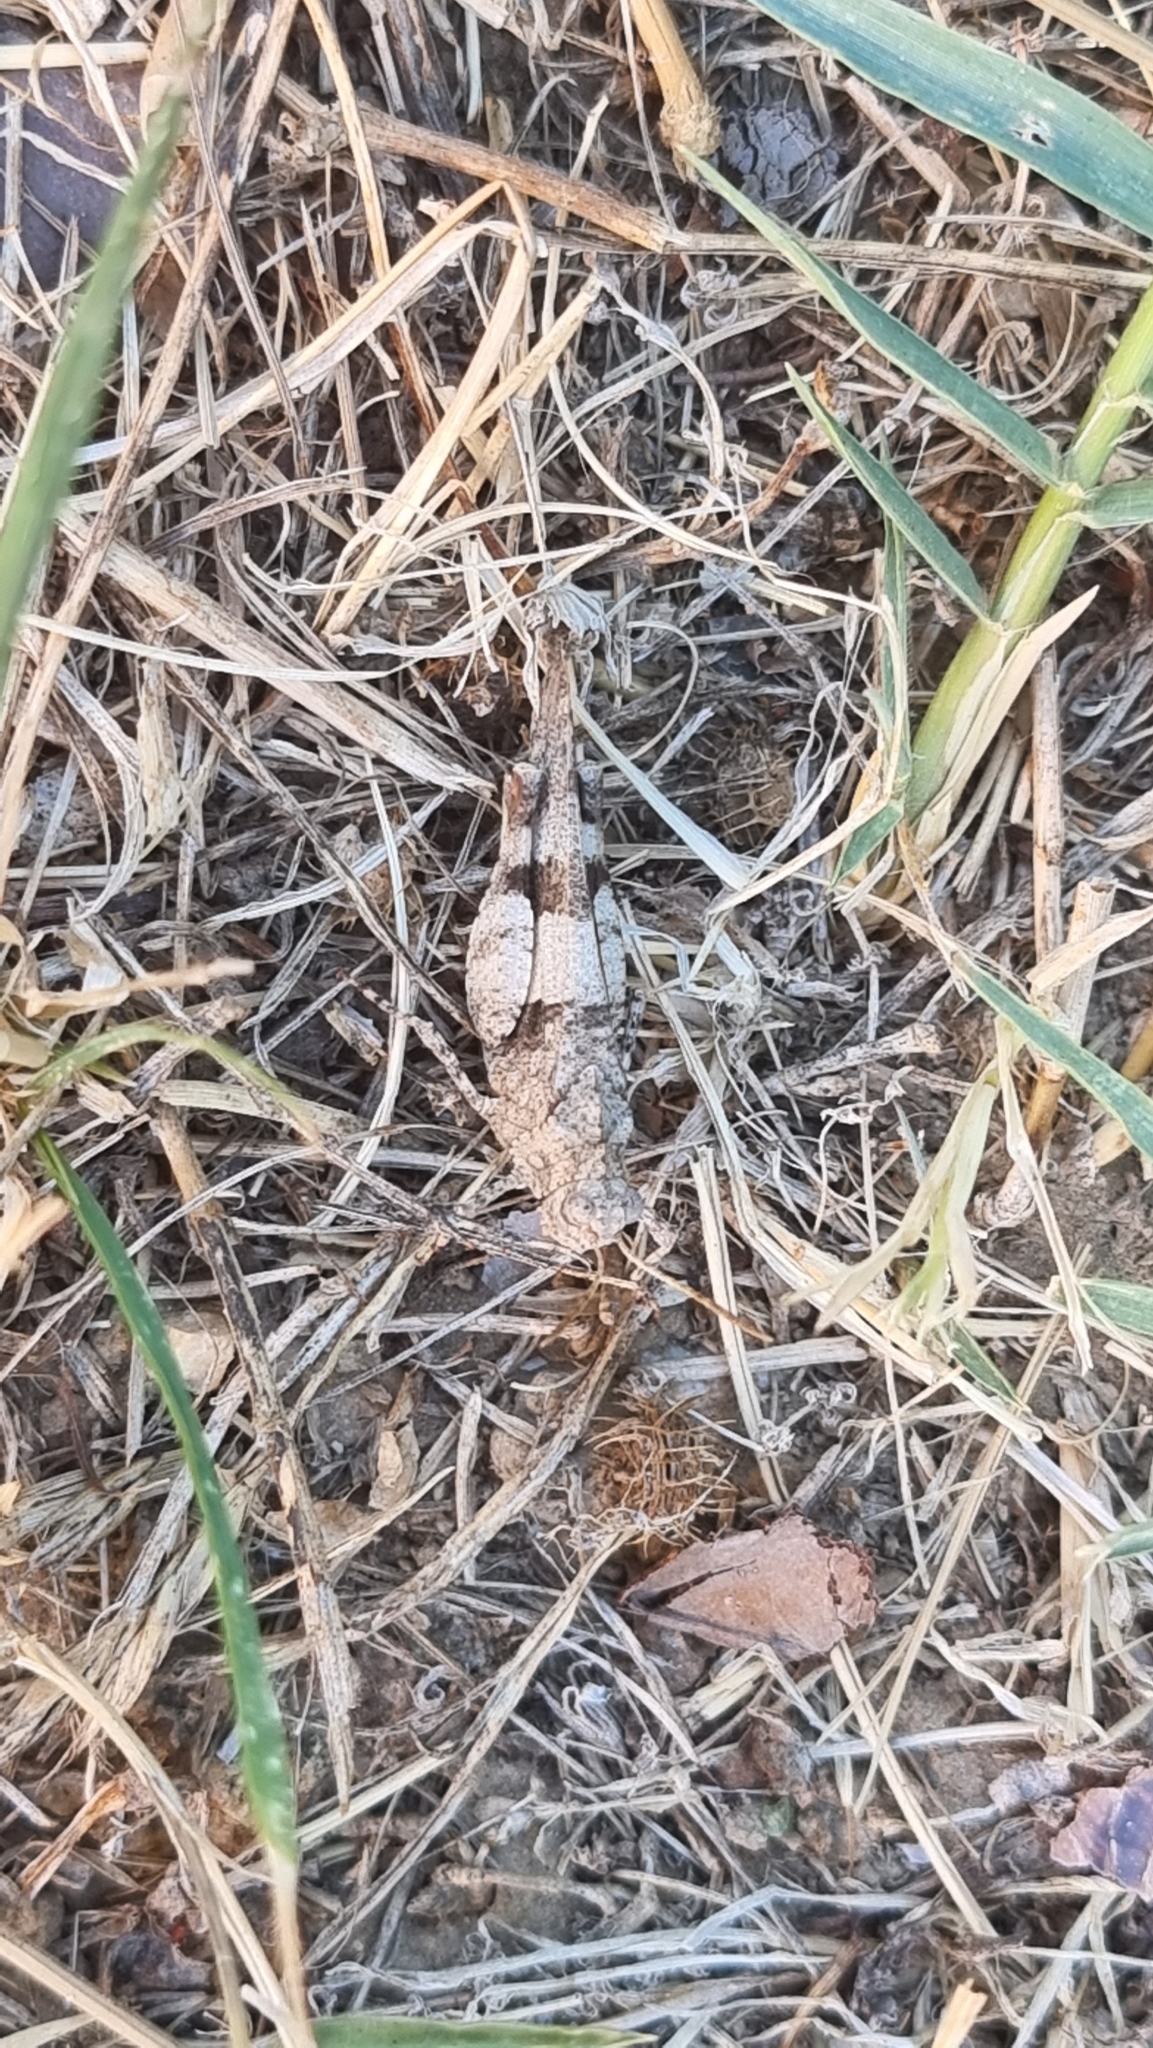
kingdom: Animalia
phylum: Arthropoda
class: Insecta
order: Orthoptera
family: Acrididae
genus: Oedipoda
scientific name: Oedipoda caerulescens
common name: Blue-winged grasshopper
